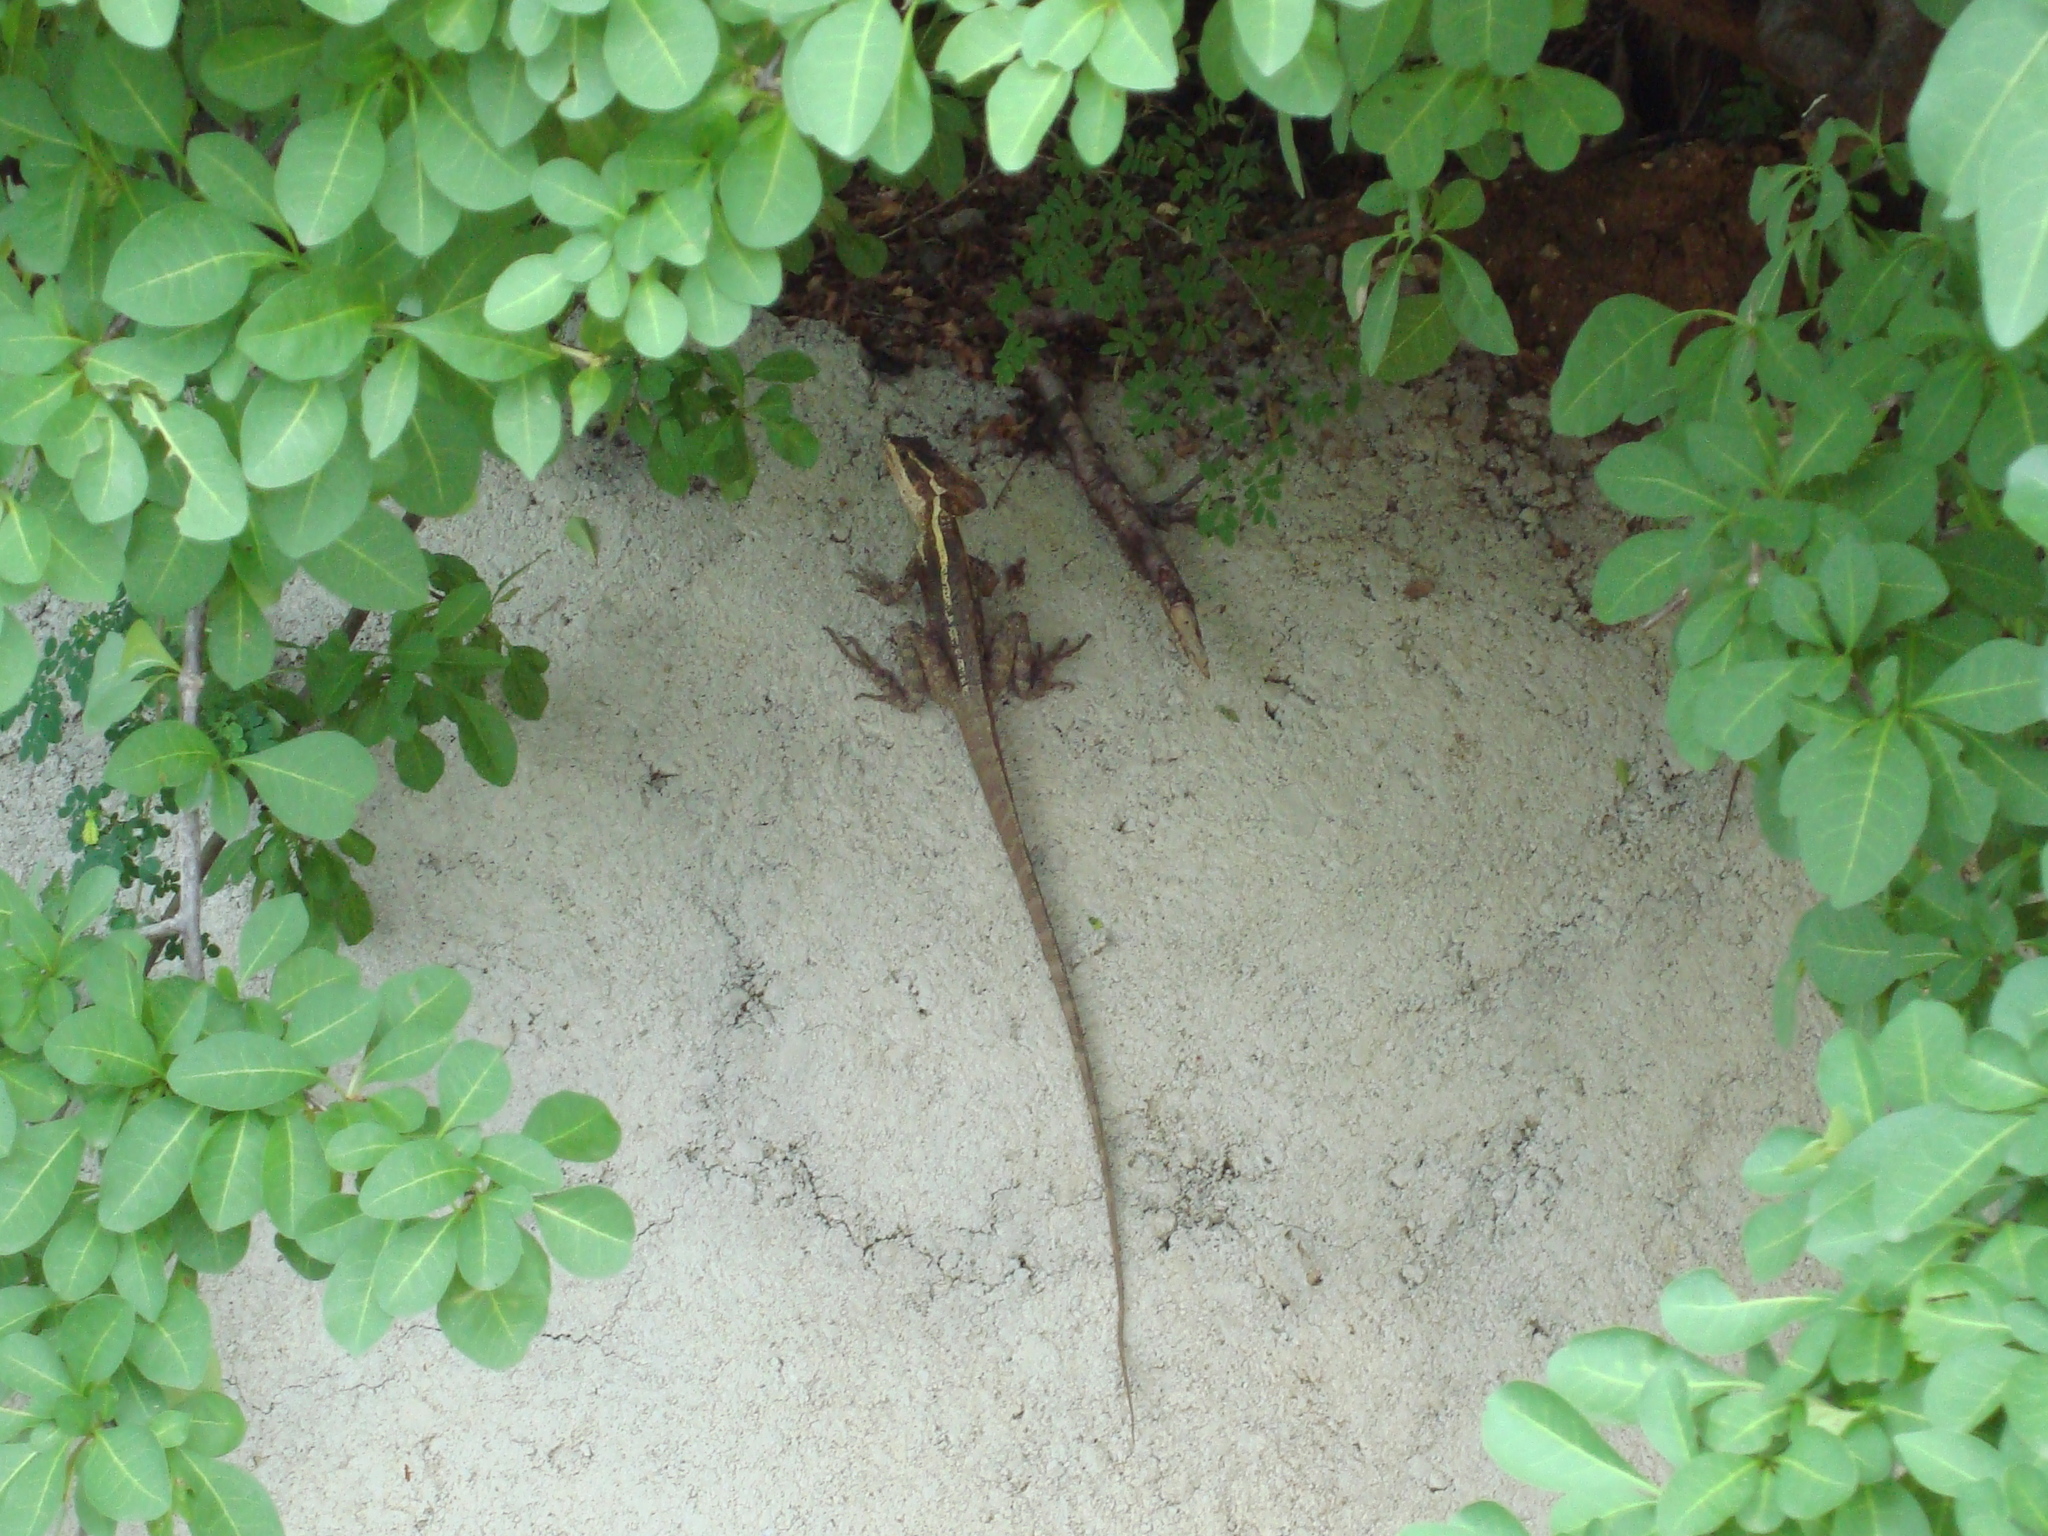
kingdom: Animalia
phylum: Chordata
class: Squamata
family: Corytophanidae
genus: Basiliscus
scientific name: Basiliscus vittatus
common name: Brown basilisk
